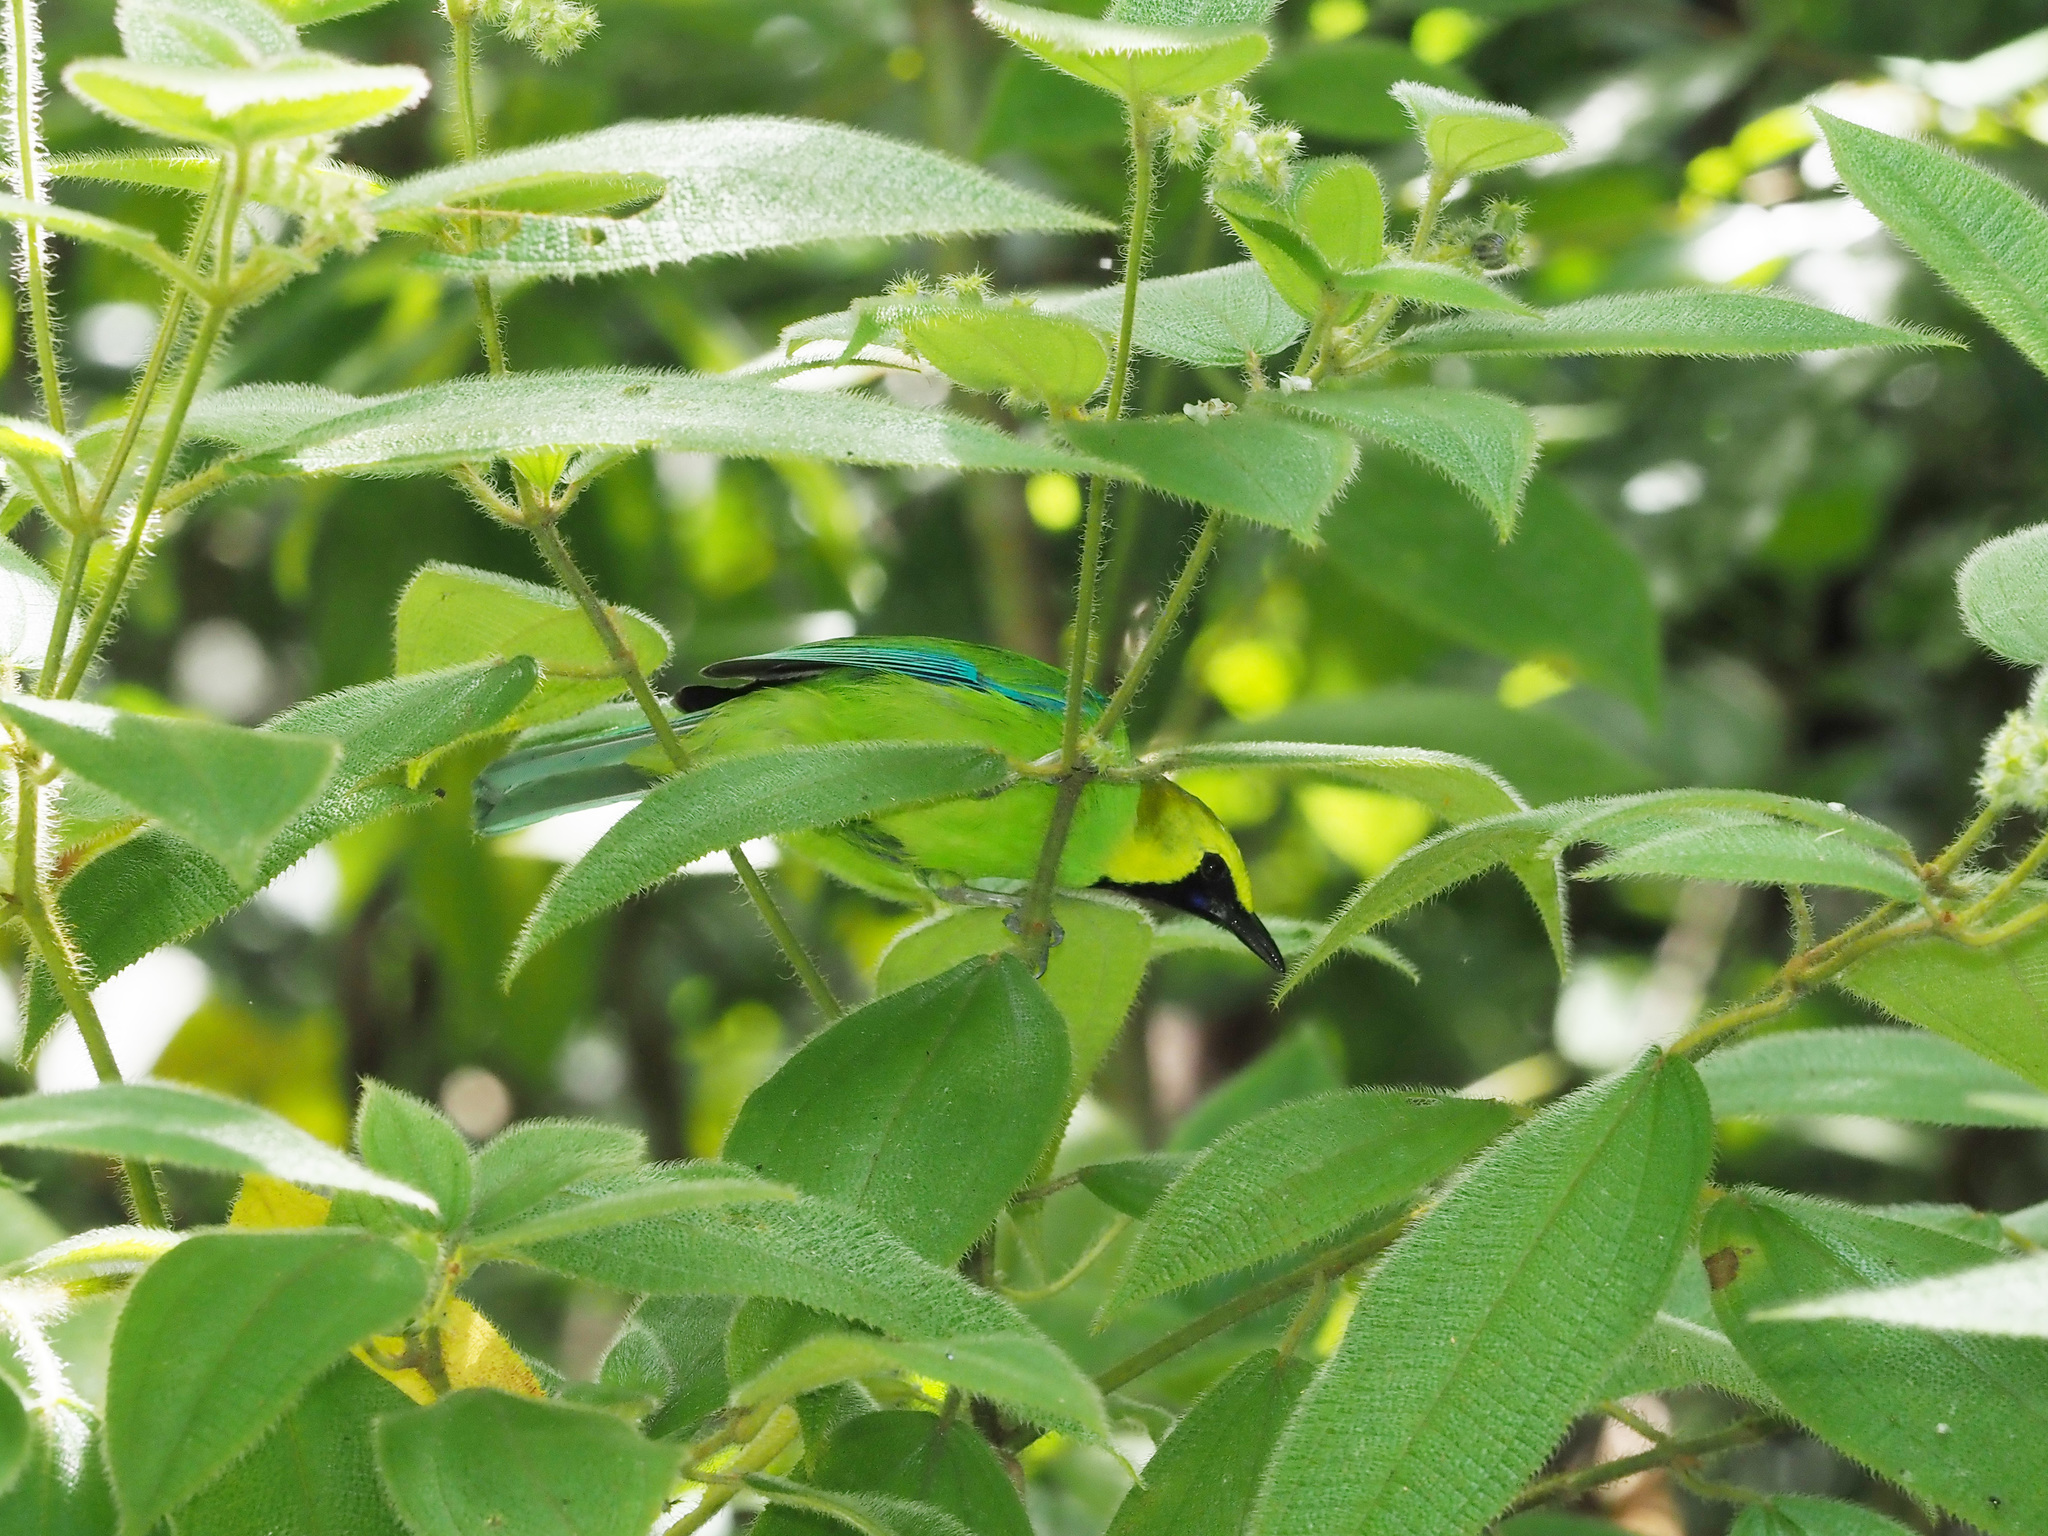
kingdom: Animalia
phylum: Chordata
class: Aves
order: Passeriformes
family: Chloropseidae
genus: Chloropsis
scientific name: Chloropsis moluccensis
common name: Blue-winged leafbird
